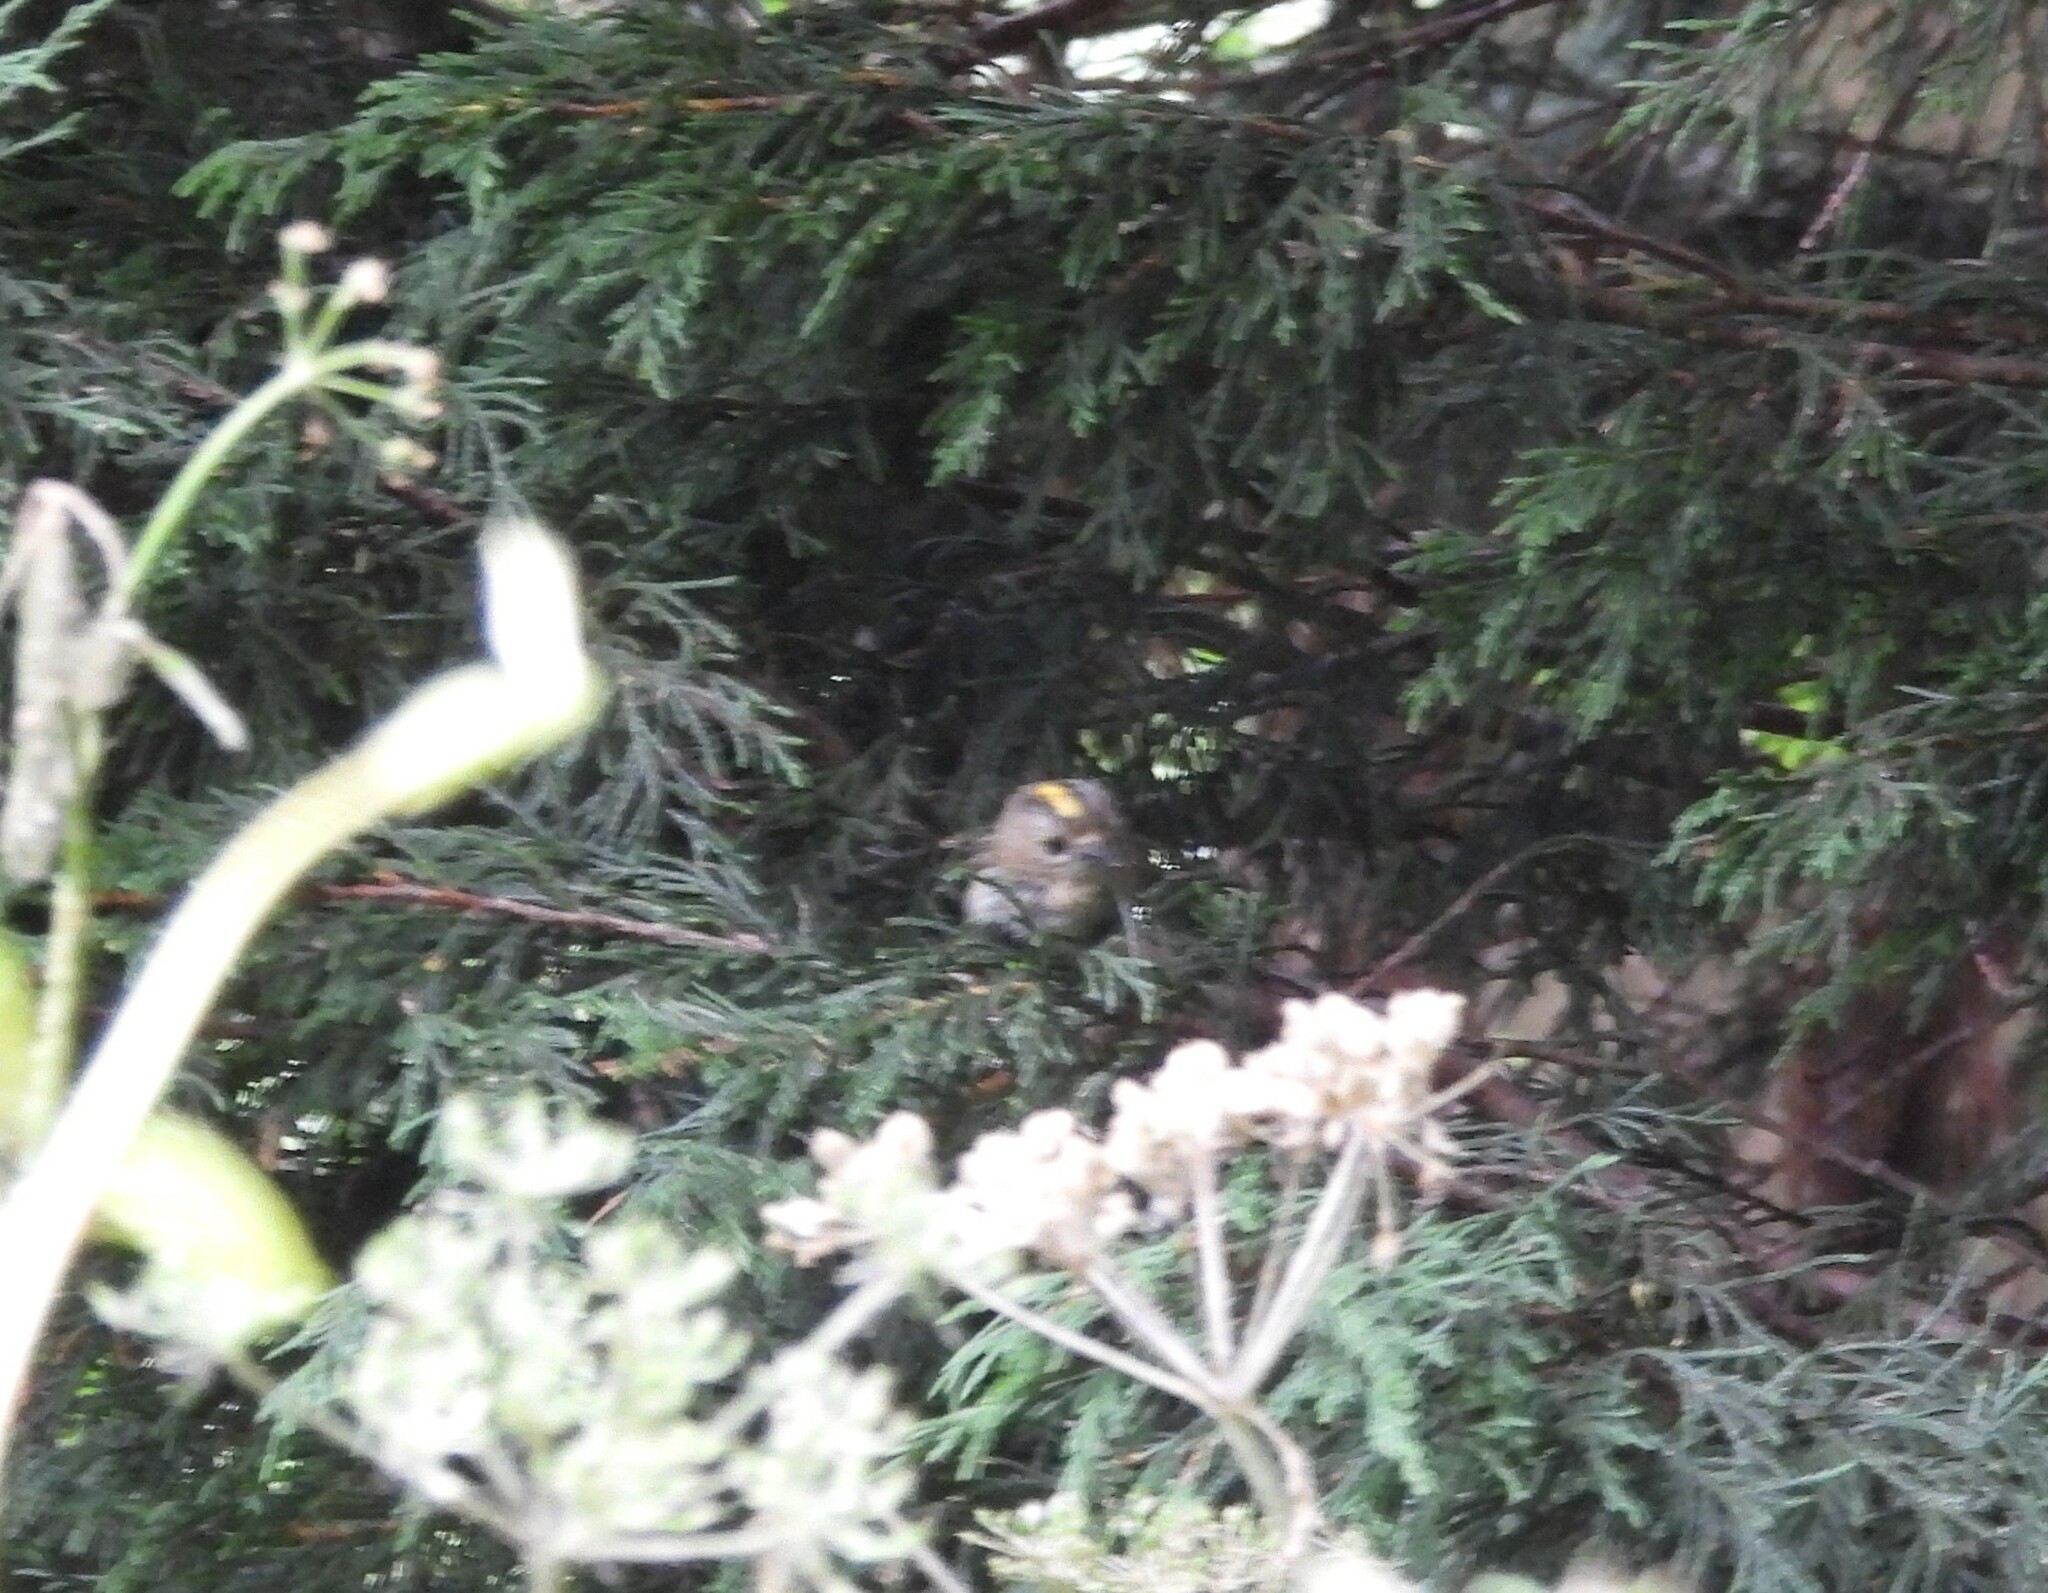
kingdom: Animalia
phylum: Chordata
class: Aves
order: Passeriformes
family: Regulidae
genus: Regulus
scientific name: Regulus regulus
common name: Goldcrest
